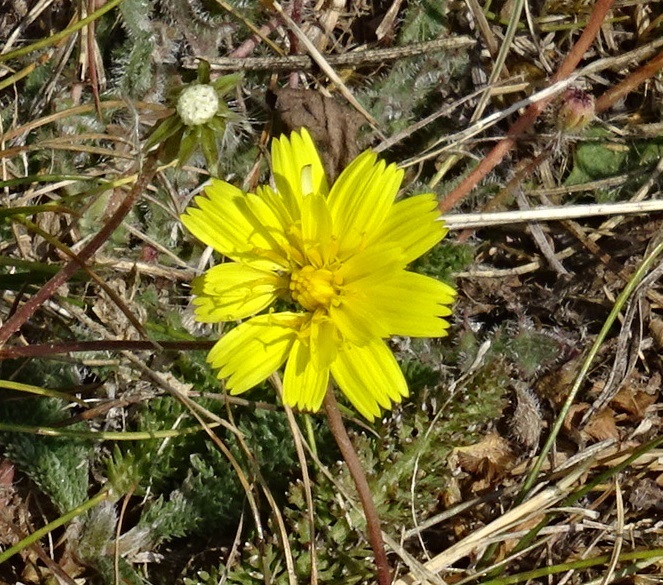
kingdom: Plantae
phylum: Tracheophyta
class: Magnoliopsida
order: Asterales
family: Asteraceae
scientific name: Asteraceae
